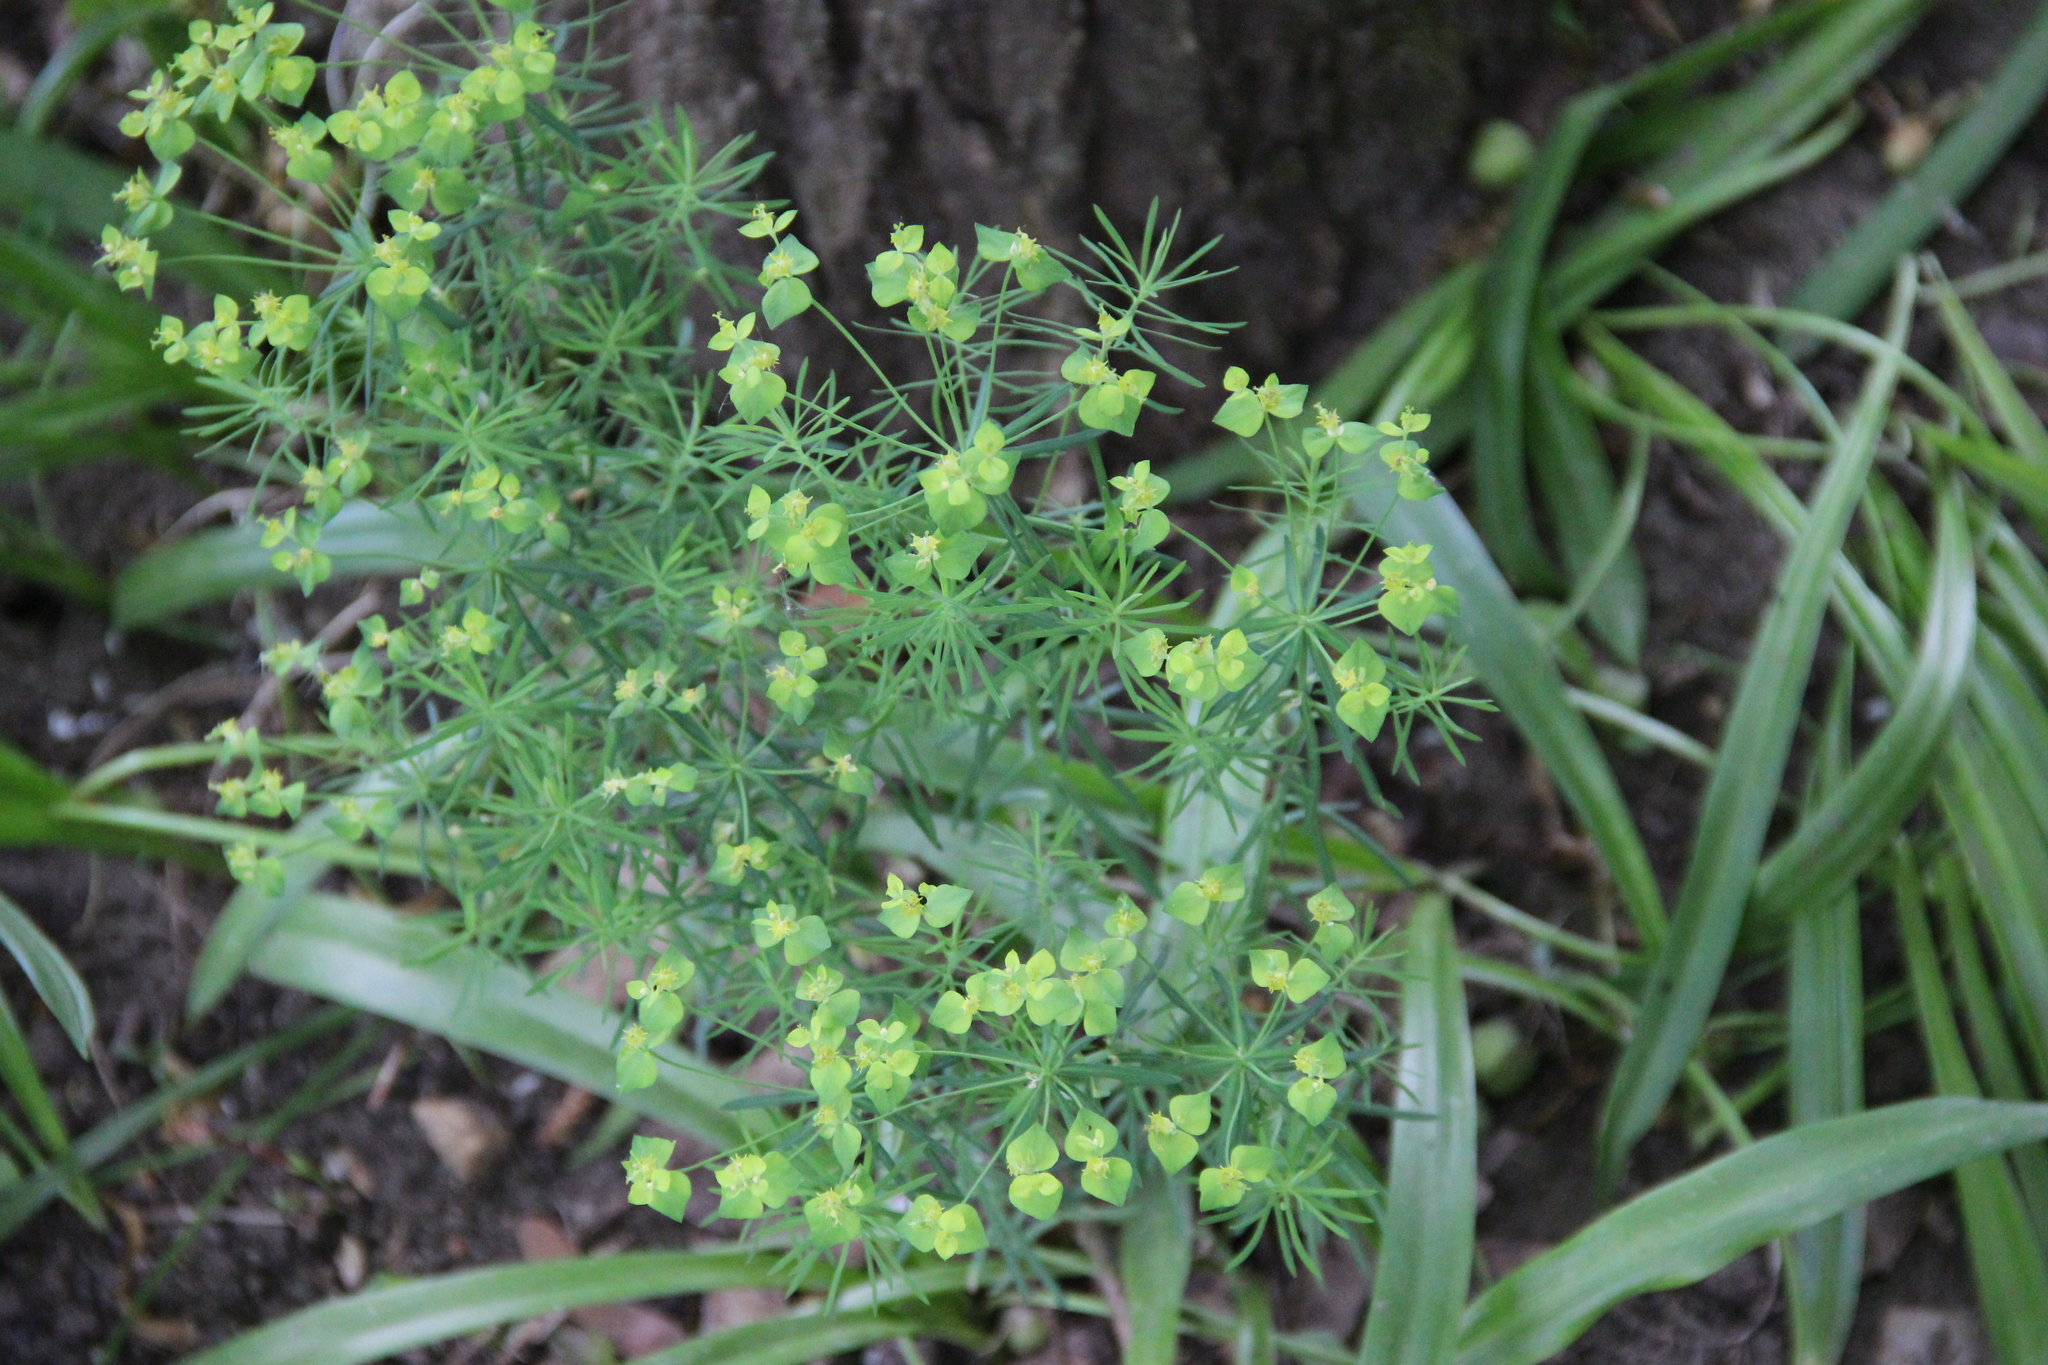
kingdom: Plantae
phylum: Tracheophyta
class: Magnoliopsida
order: Malpighiales
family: Euphorbiaceae
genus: Euphorbia
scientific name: Euphorbia cyparissias
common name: Cypress spurge
